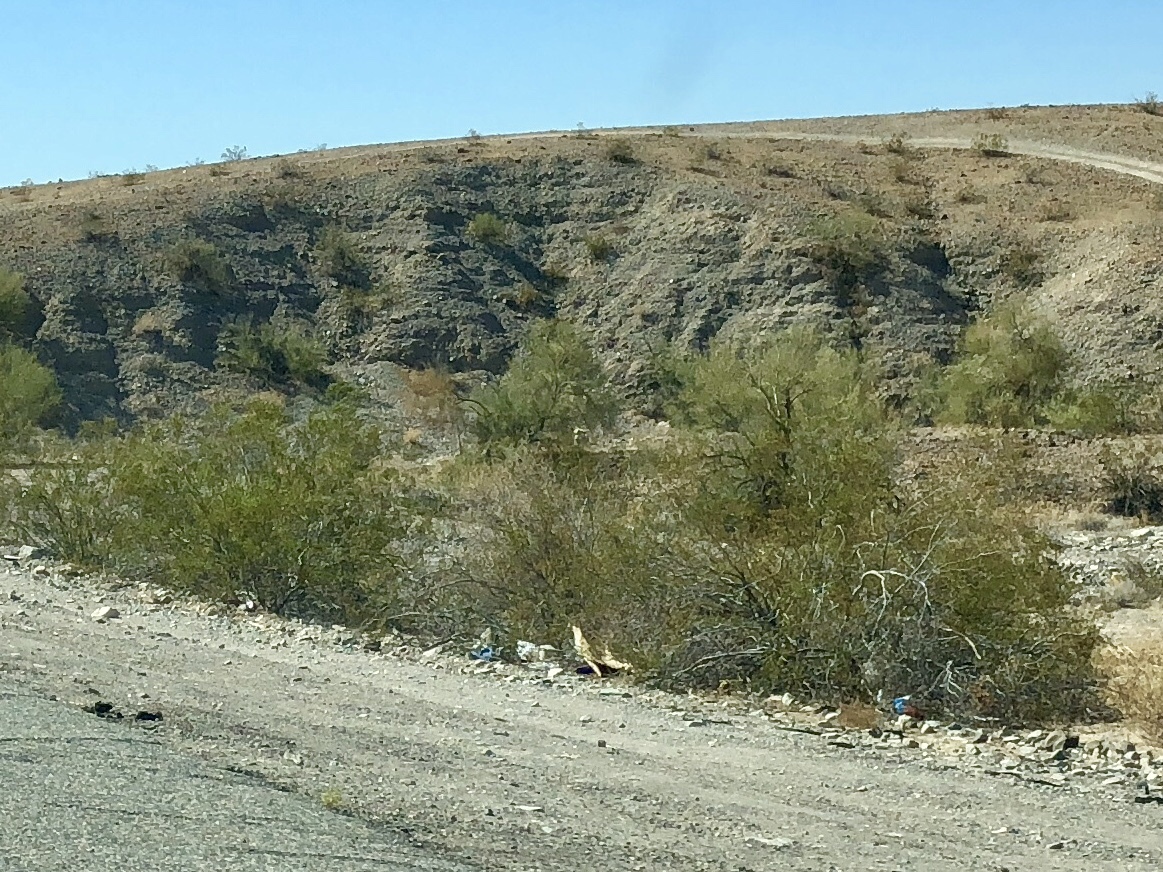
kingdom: Plantae
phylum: Tracheophyta
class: Magnoliopsida
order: Zygophyllales
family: Zygophyllaceae
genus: Larrea
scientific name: Larrea tridentata
